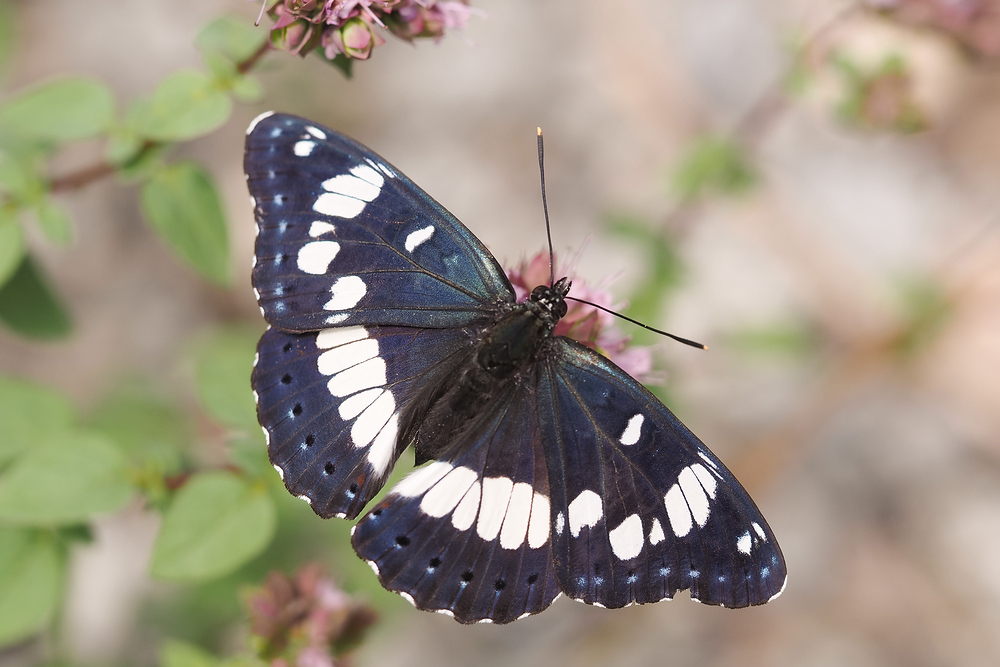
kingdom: Animalia
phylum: Arthropoda
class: Insecta
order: Lepidoptera
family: Nymphalidae
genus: Limenitis
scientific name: Limenitis reducta
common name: Southern white admiral
